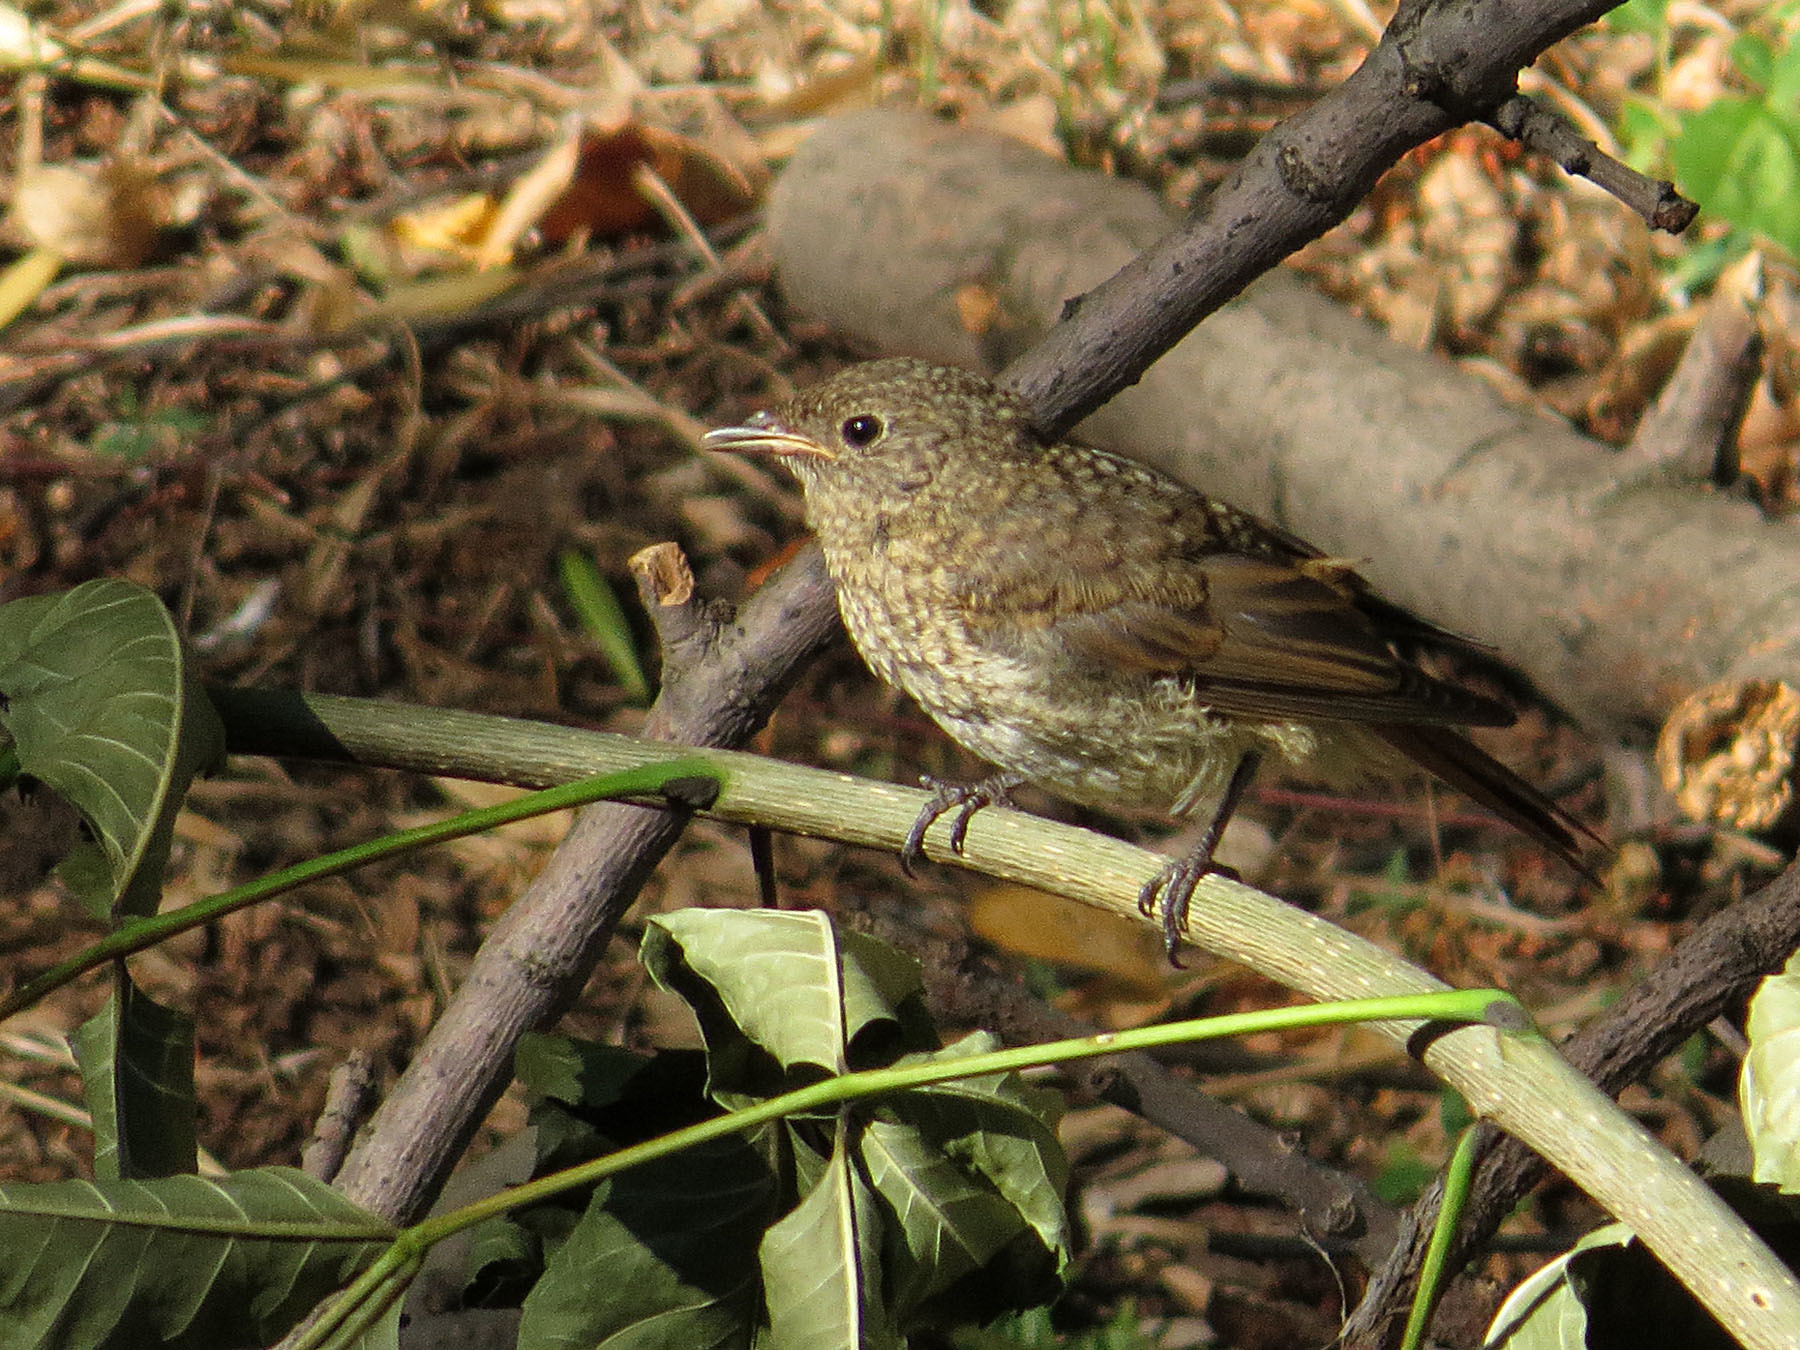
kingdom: Animalia
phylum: Chordata
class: Aves
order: Passeriformes
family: Muscicapidae
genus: Phoenicurus
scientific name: Phoenicurus phoenicurus
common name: Common redstart
